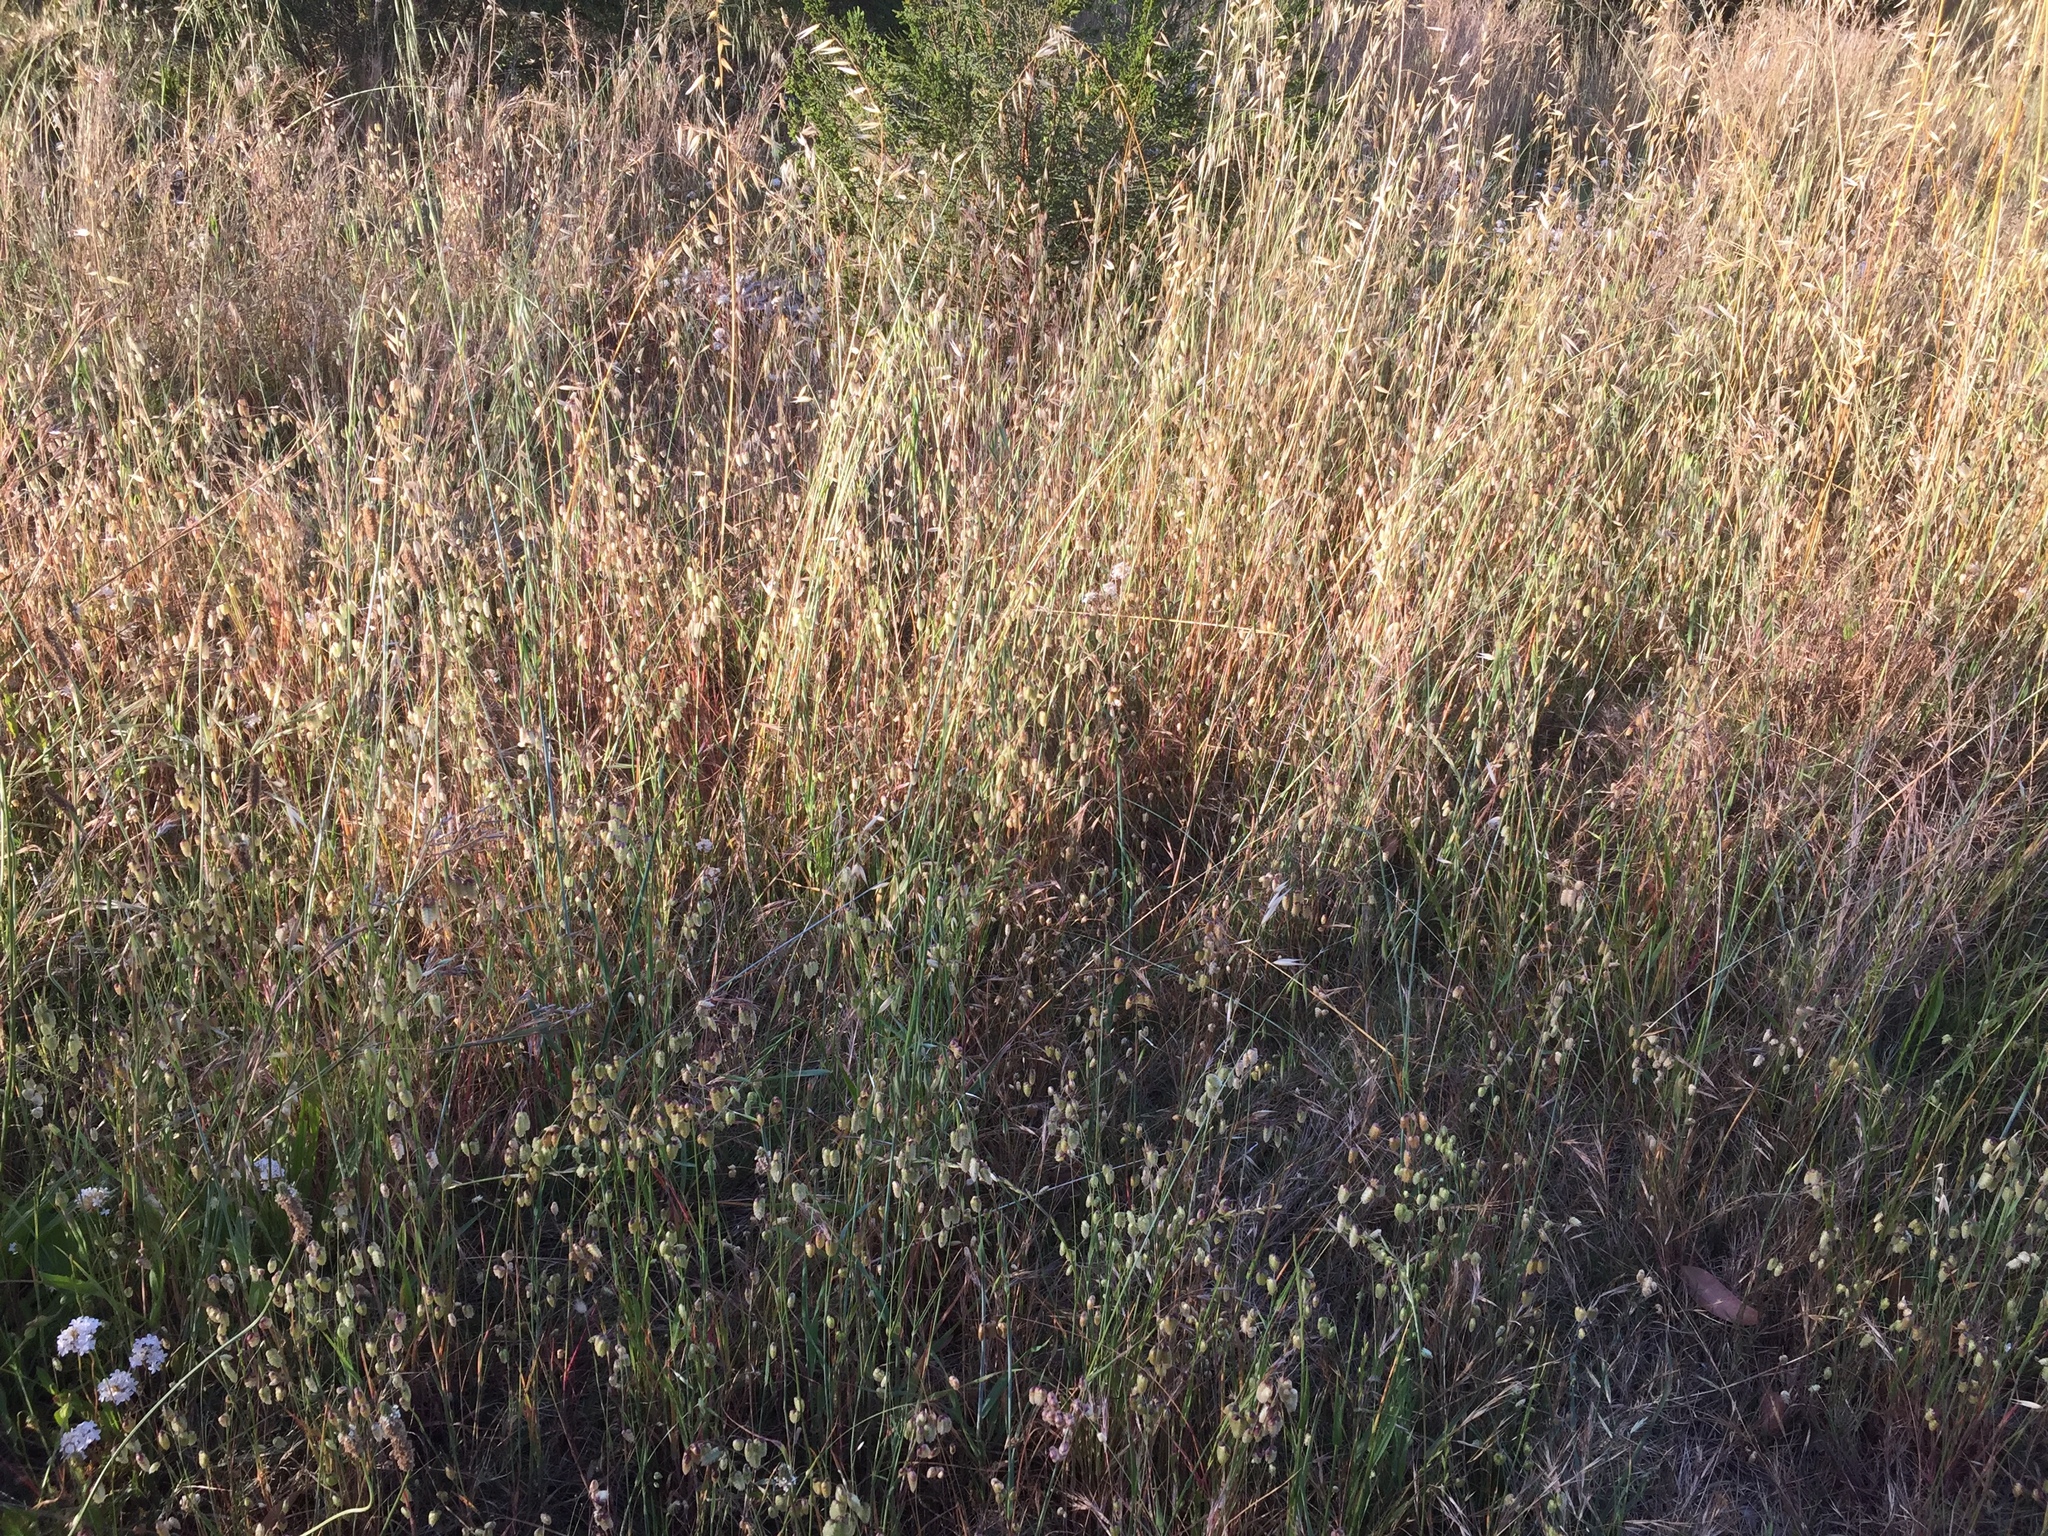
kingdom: Plantae
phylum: Tracheophyta
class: Liliopsida
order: Poales
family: Poaceae
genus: Briza
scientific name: Briza maxima
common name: Big quakinggrass
